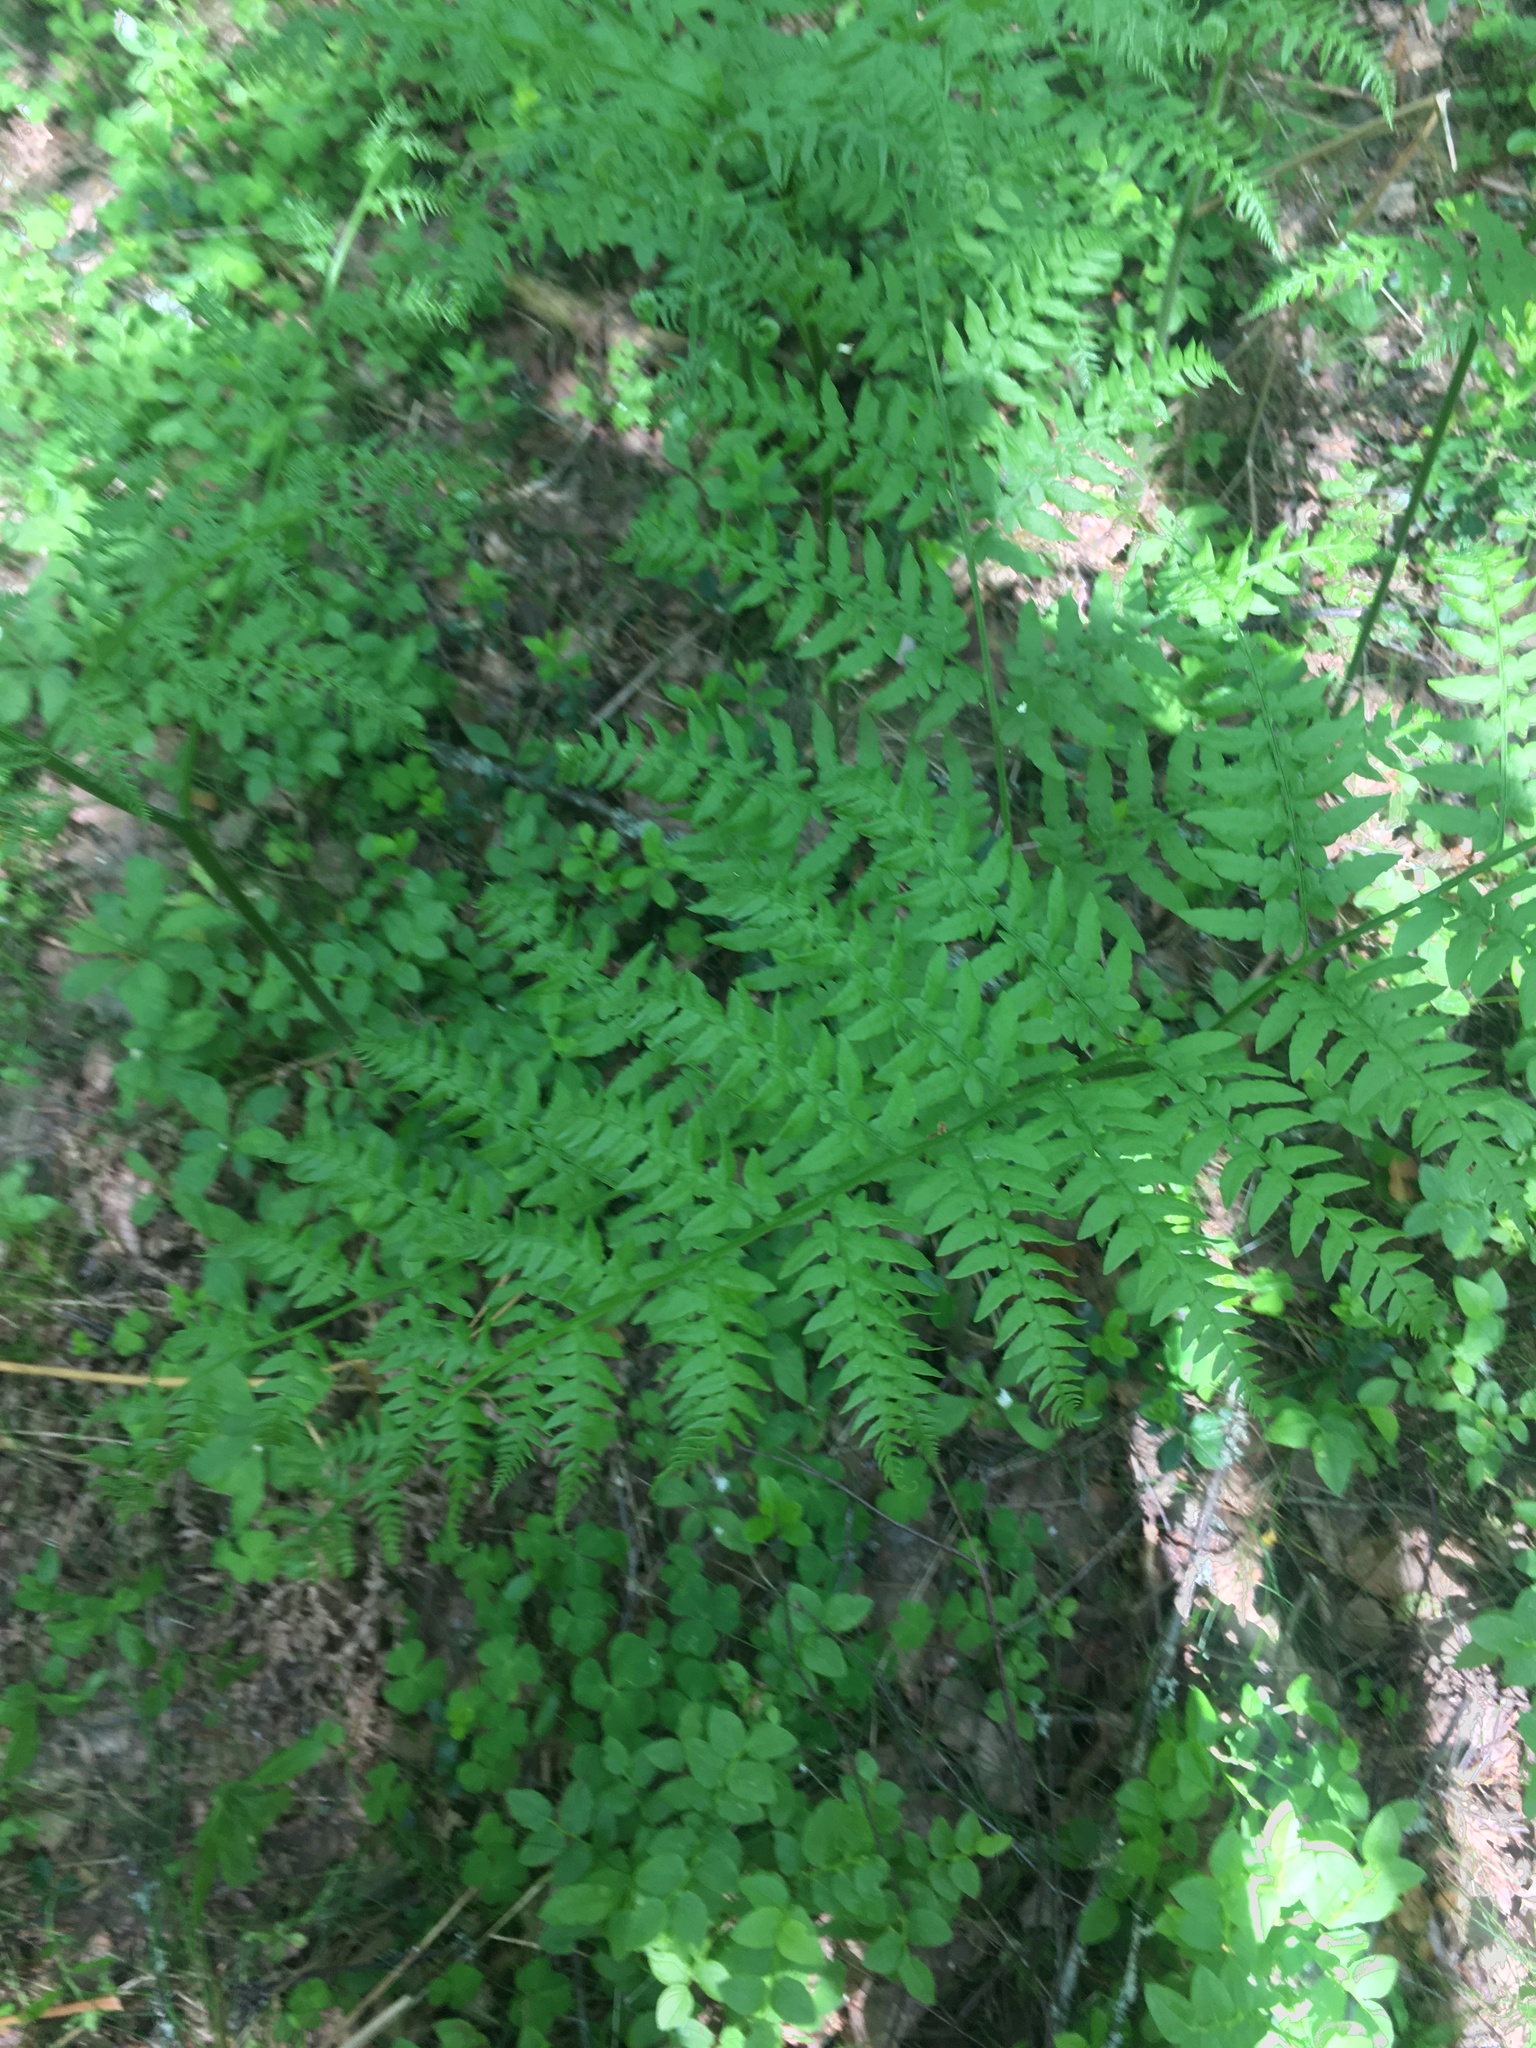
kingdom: Plantae
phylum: Tracheophyta
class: Polypodiopsida
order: Polypodiales
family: Dennstaedtiaceae
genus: Pteridium
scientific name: Pteridium aquilinum
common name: Bracken
